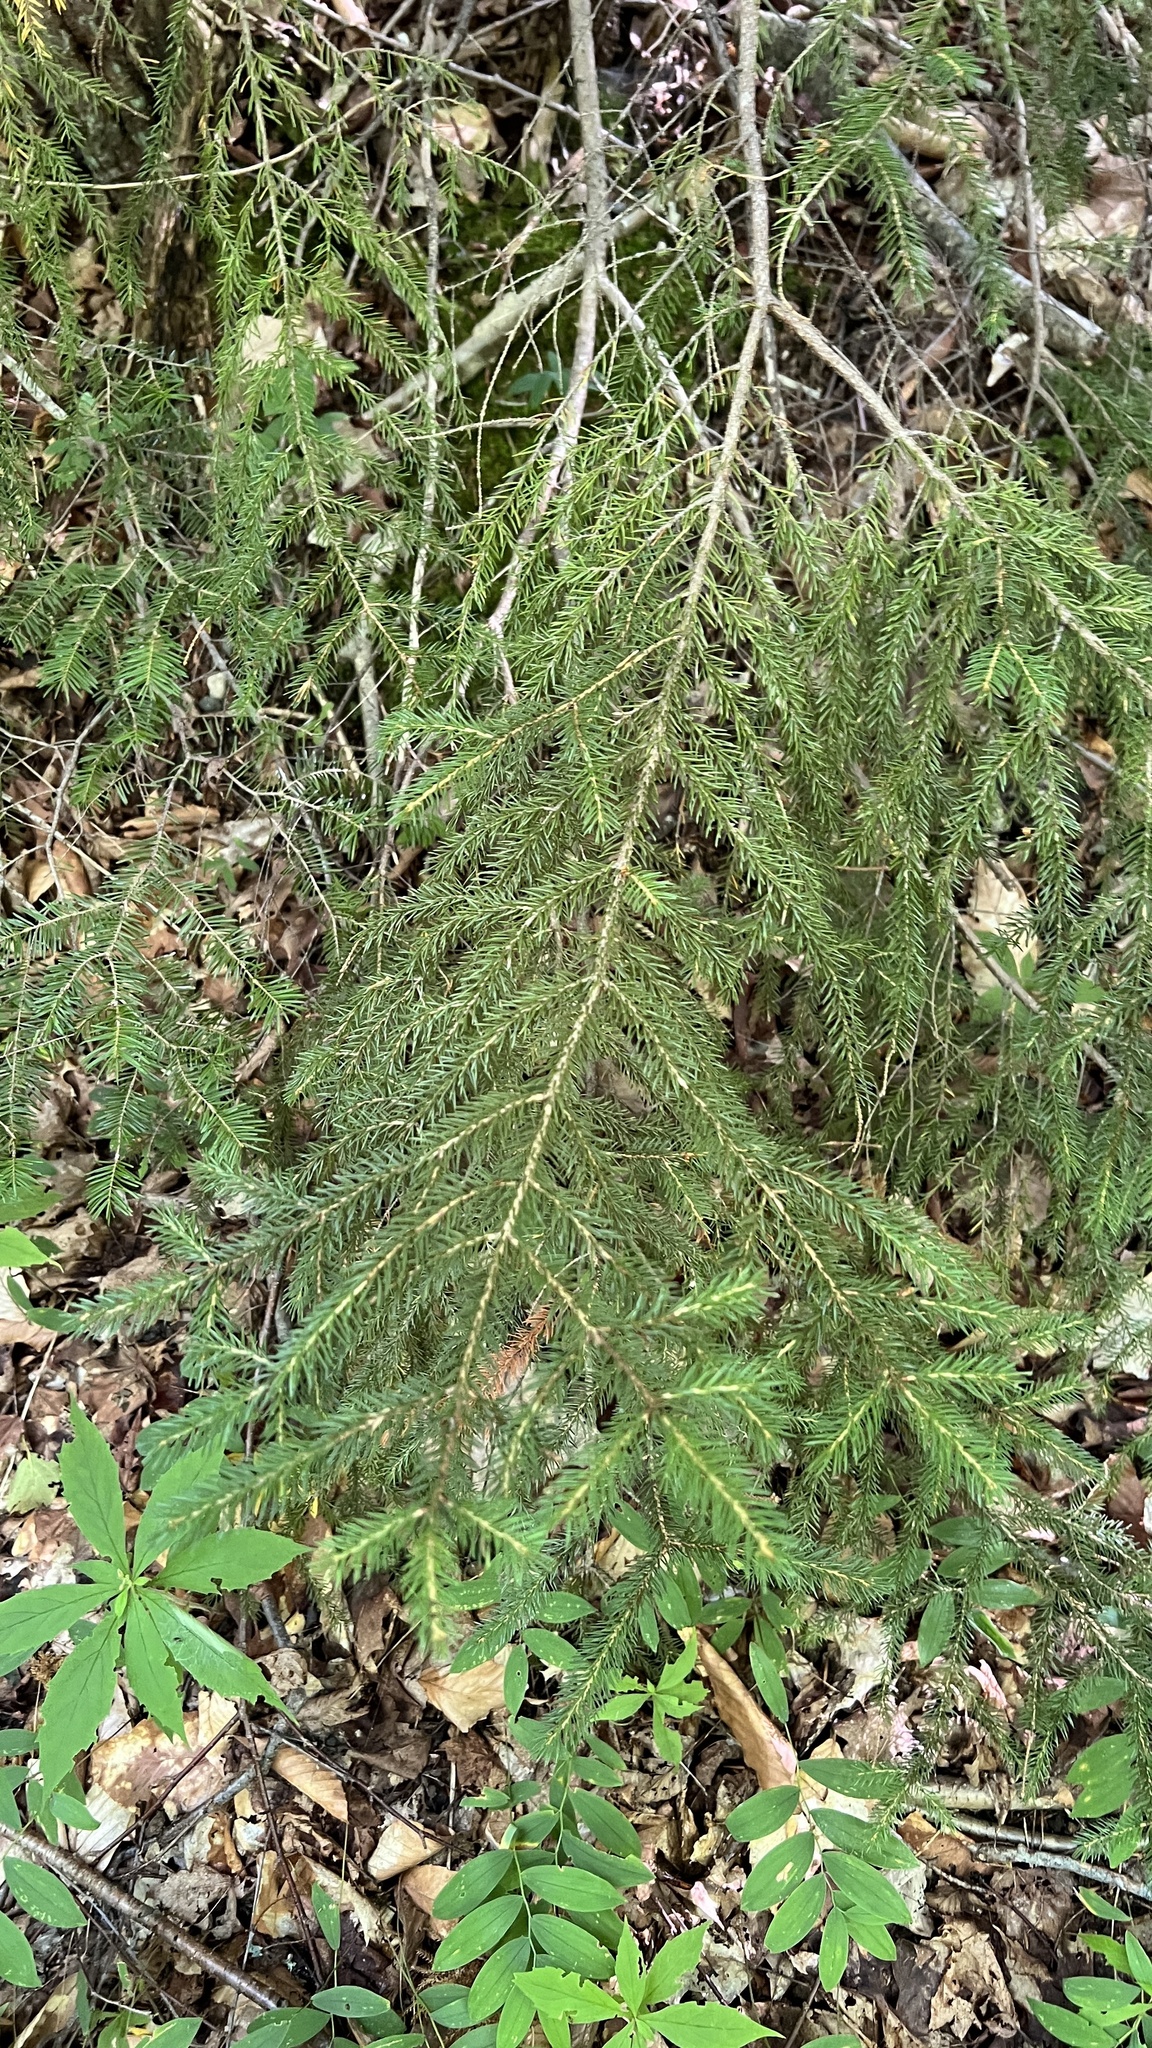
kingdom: Plantae
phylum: Tracheophyta
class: Pinopsida
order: Pinales
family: Pinaceae
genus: Picea
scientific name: Picea rubens
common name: Red spruce
